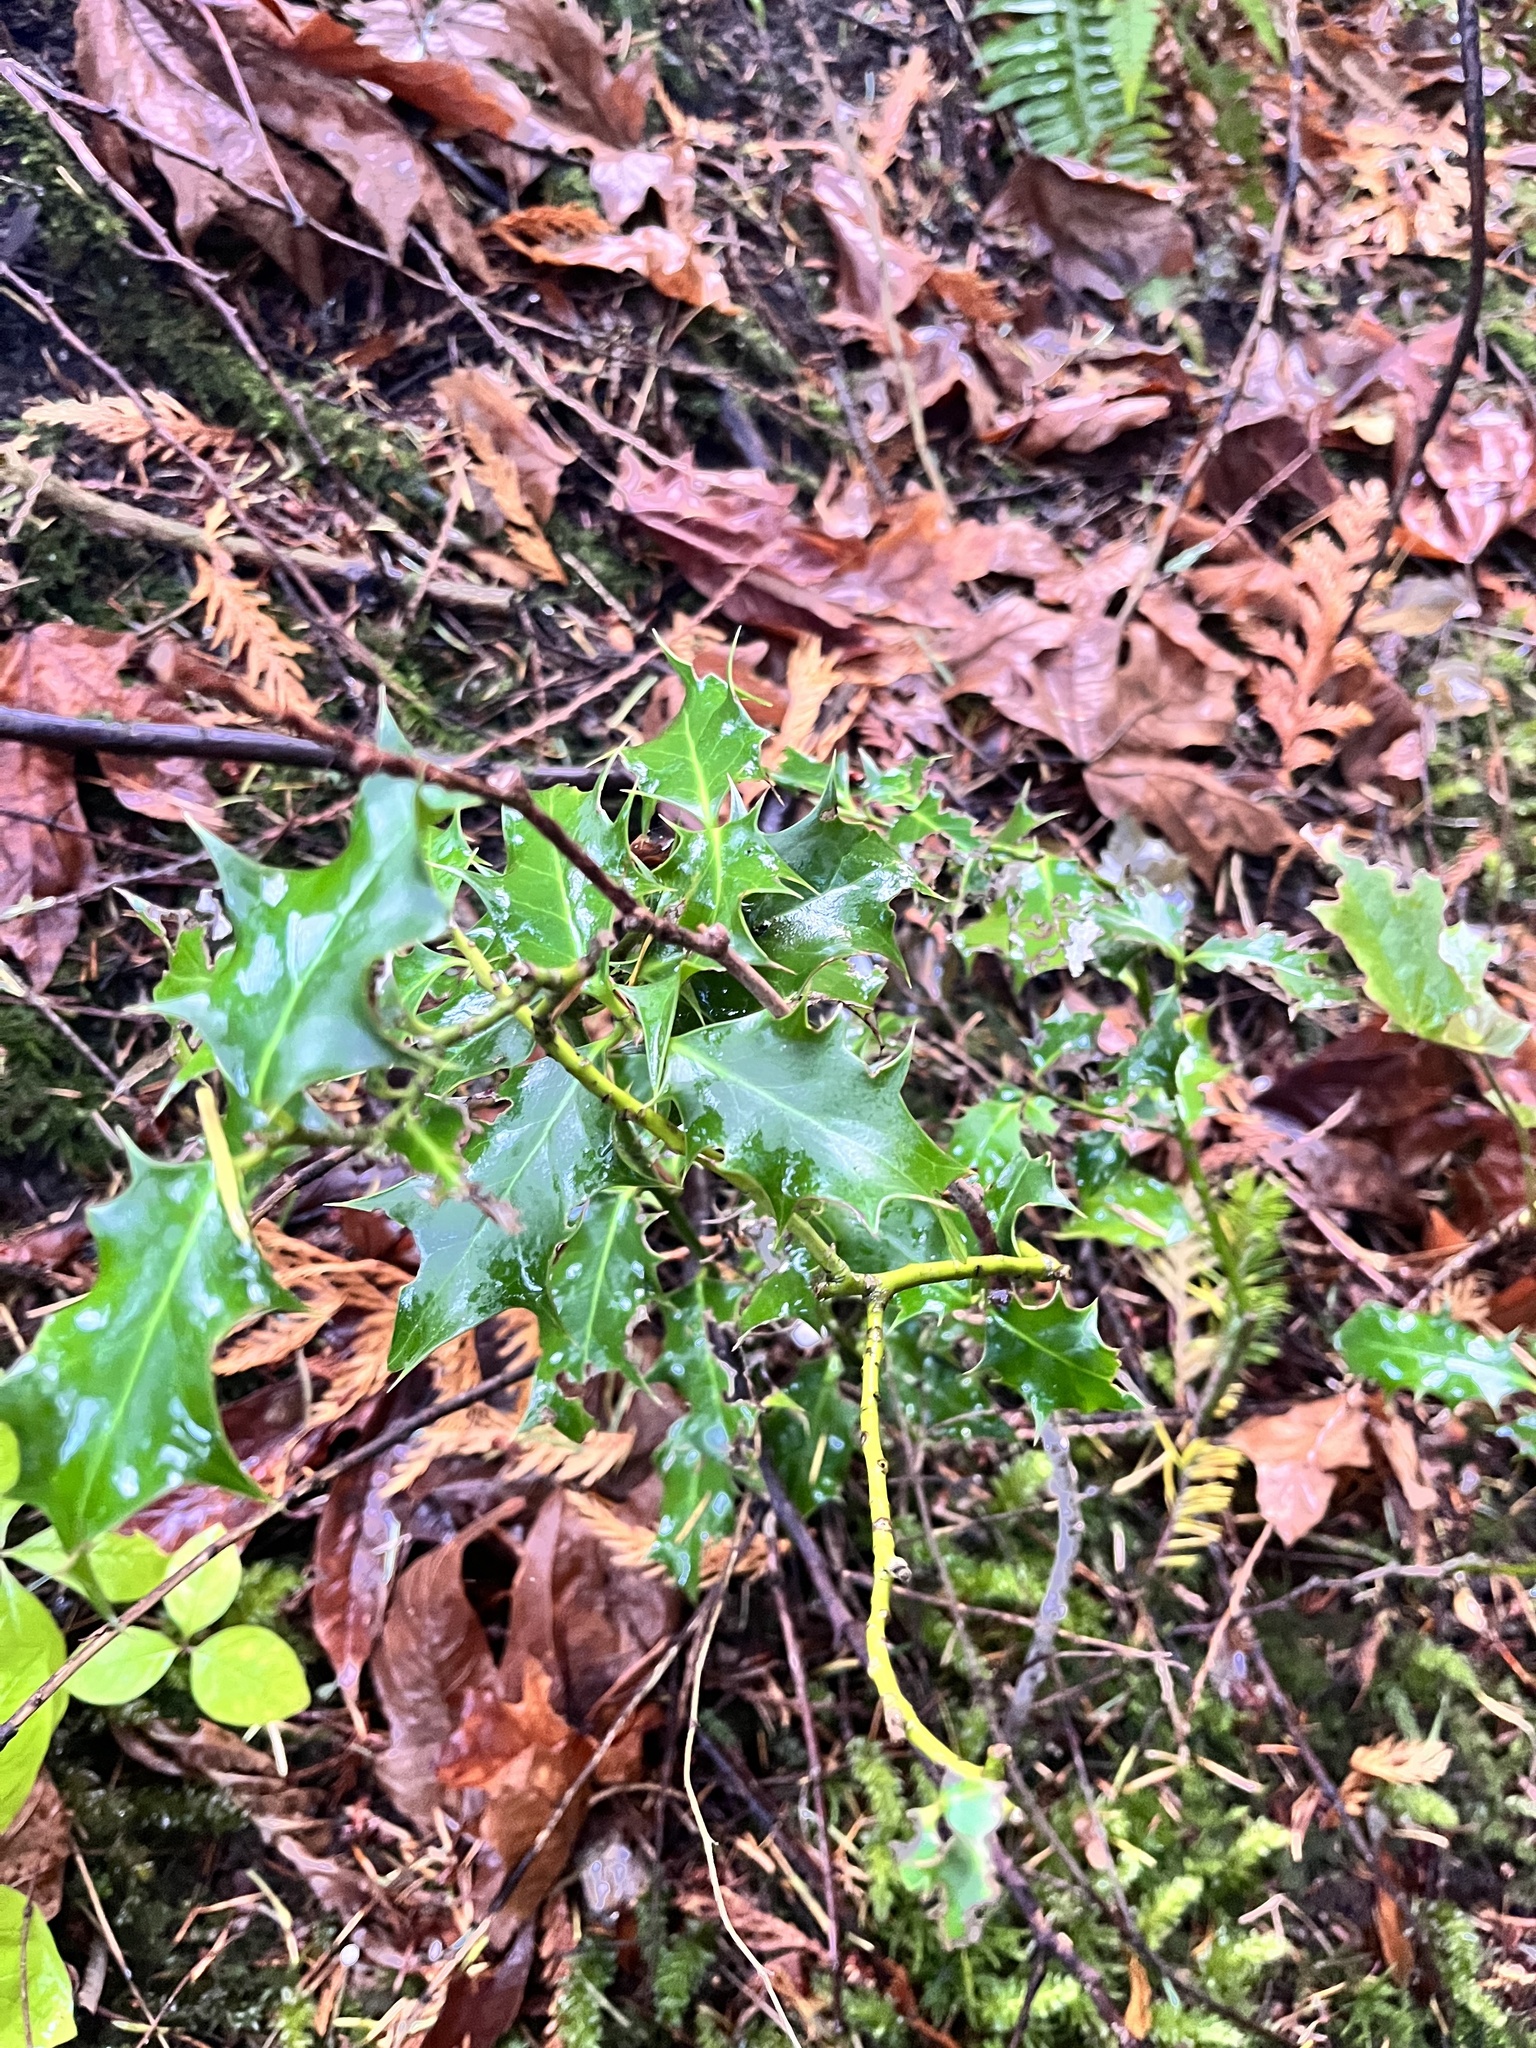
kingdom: Plantae
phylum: Tracheophyta
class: Magnoliopsida
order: Aquifoliales
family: Aquifoliaceae
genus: Ilex
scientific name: Ilex aquifolium
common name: English holly
